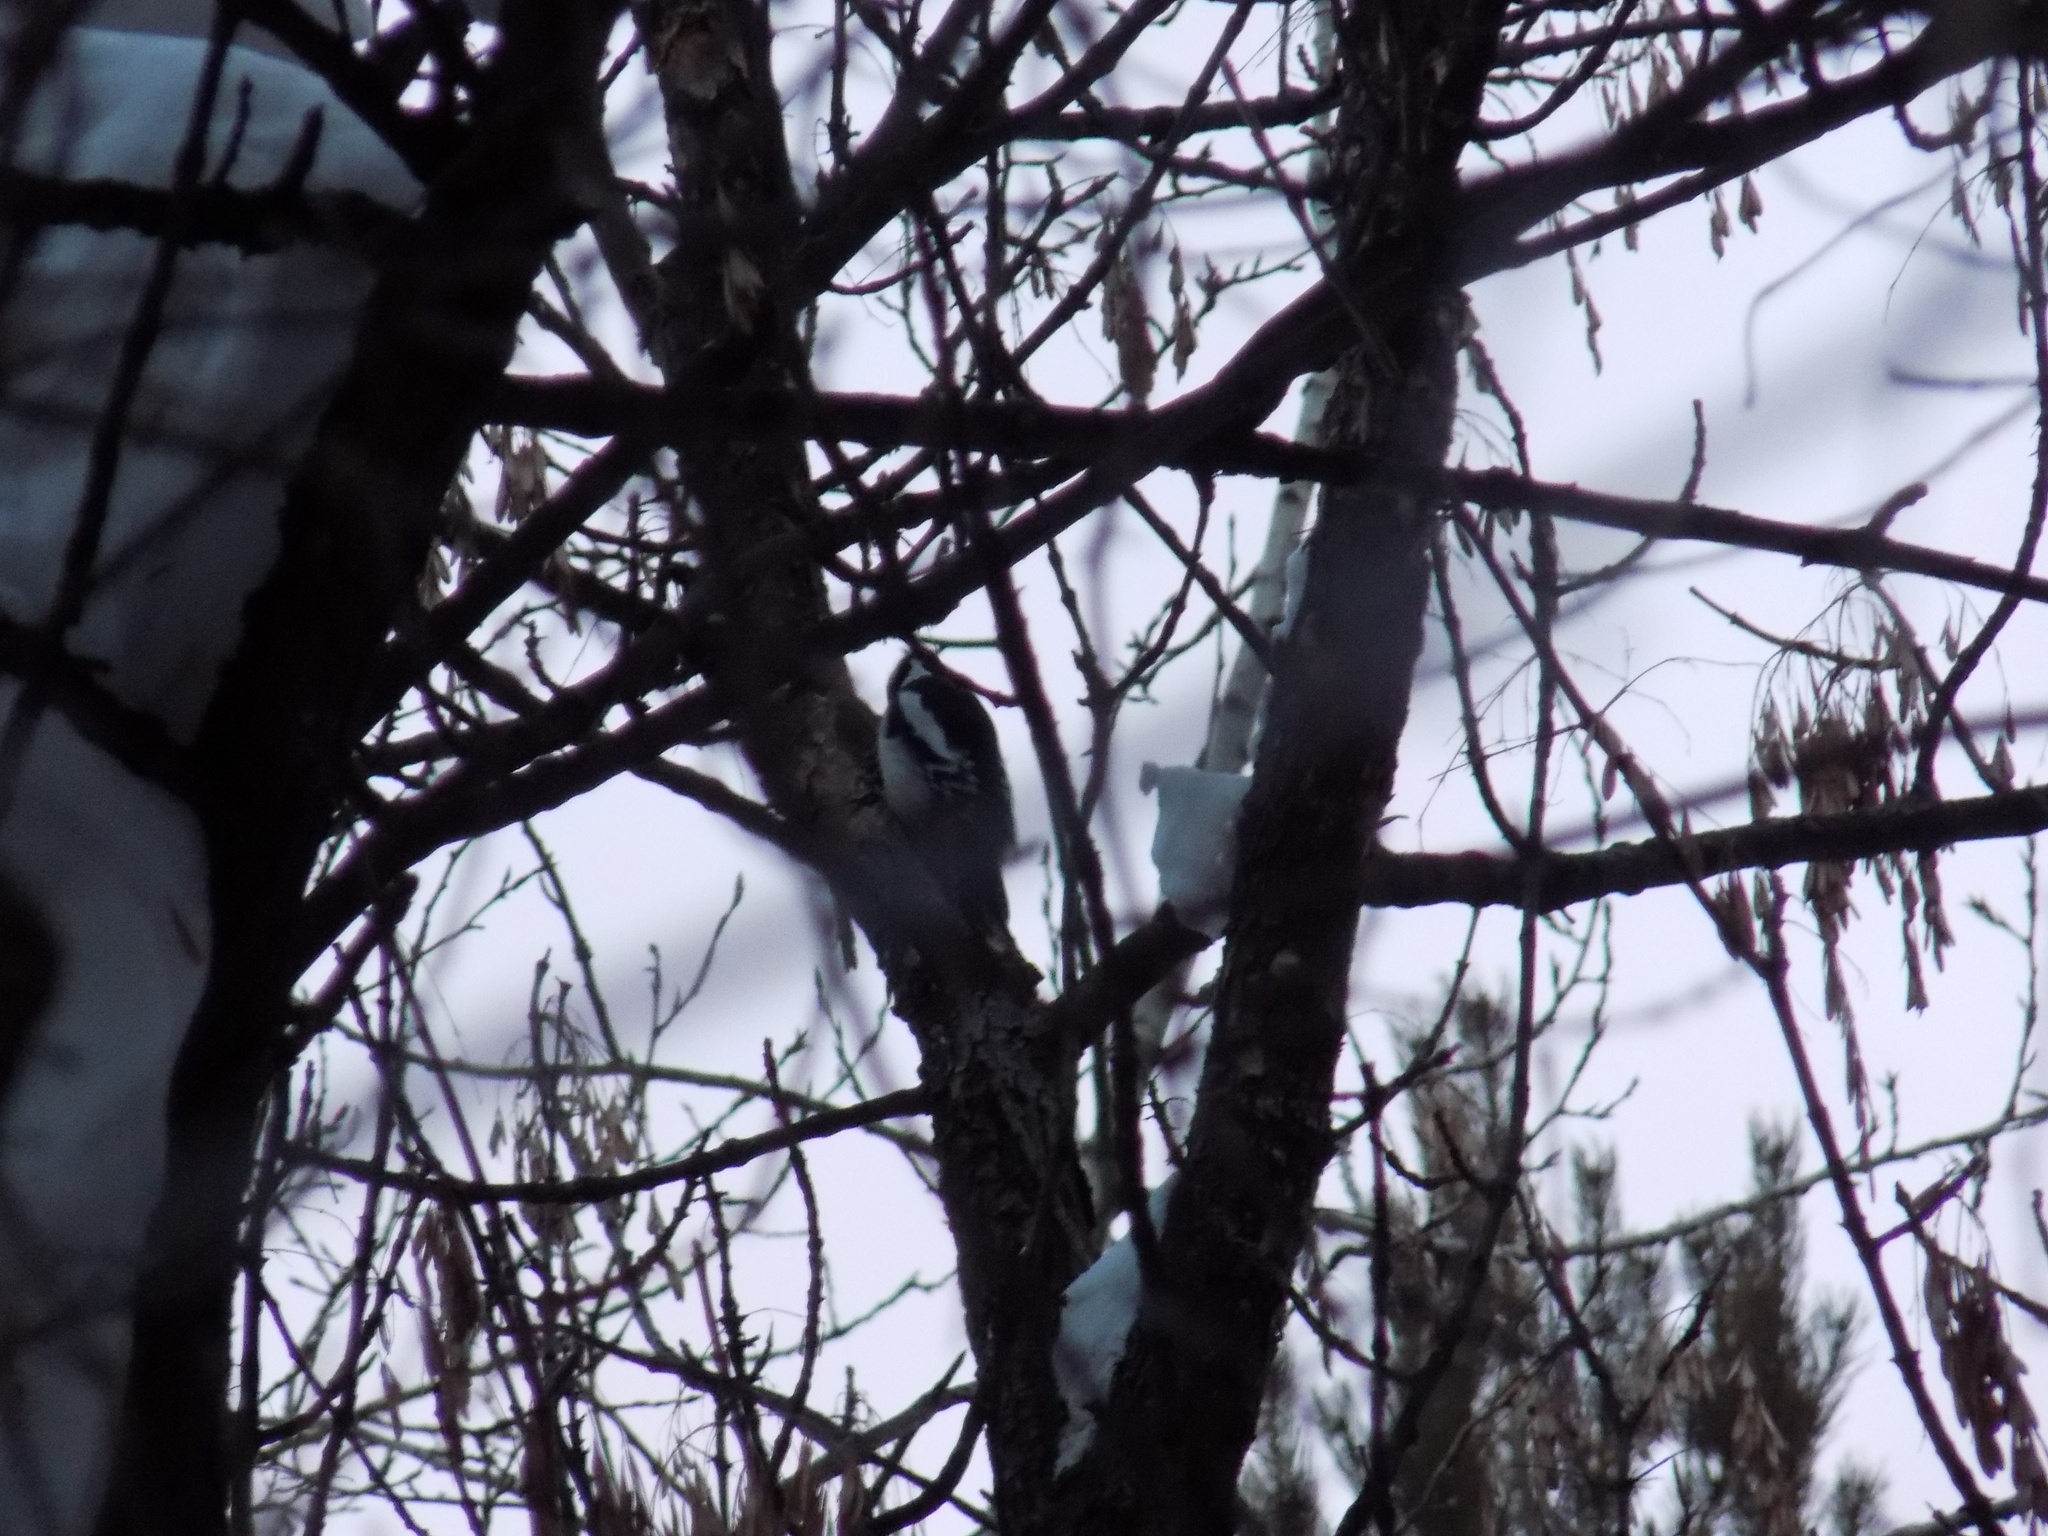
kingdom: Animalia
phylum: Chordata
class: Aves
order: Piciformes
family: Picidae
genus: Dendrocopos
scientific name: Dendrocopos major
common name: Great spotted woodpecker
